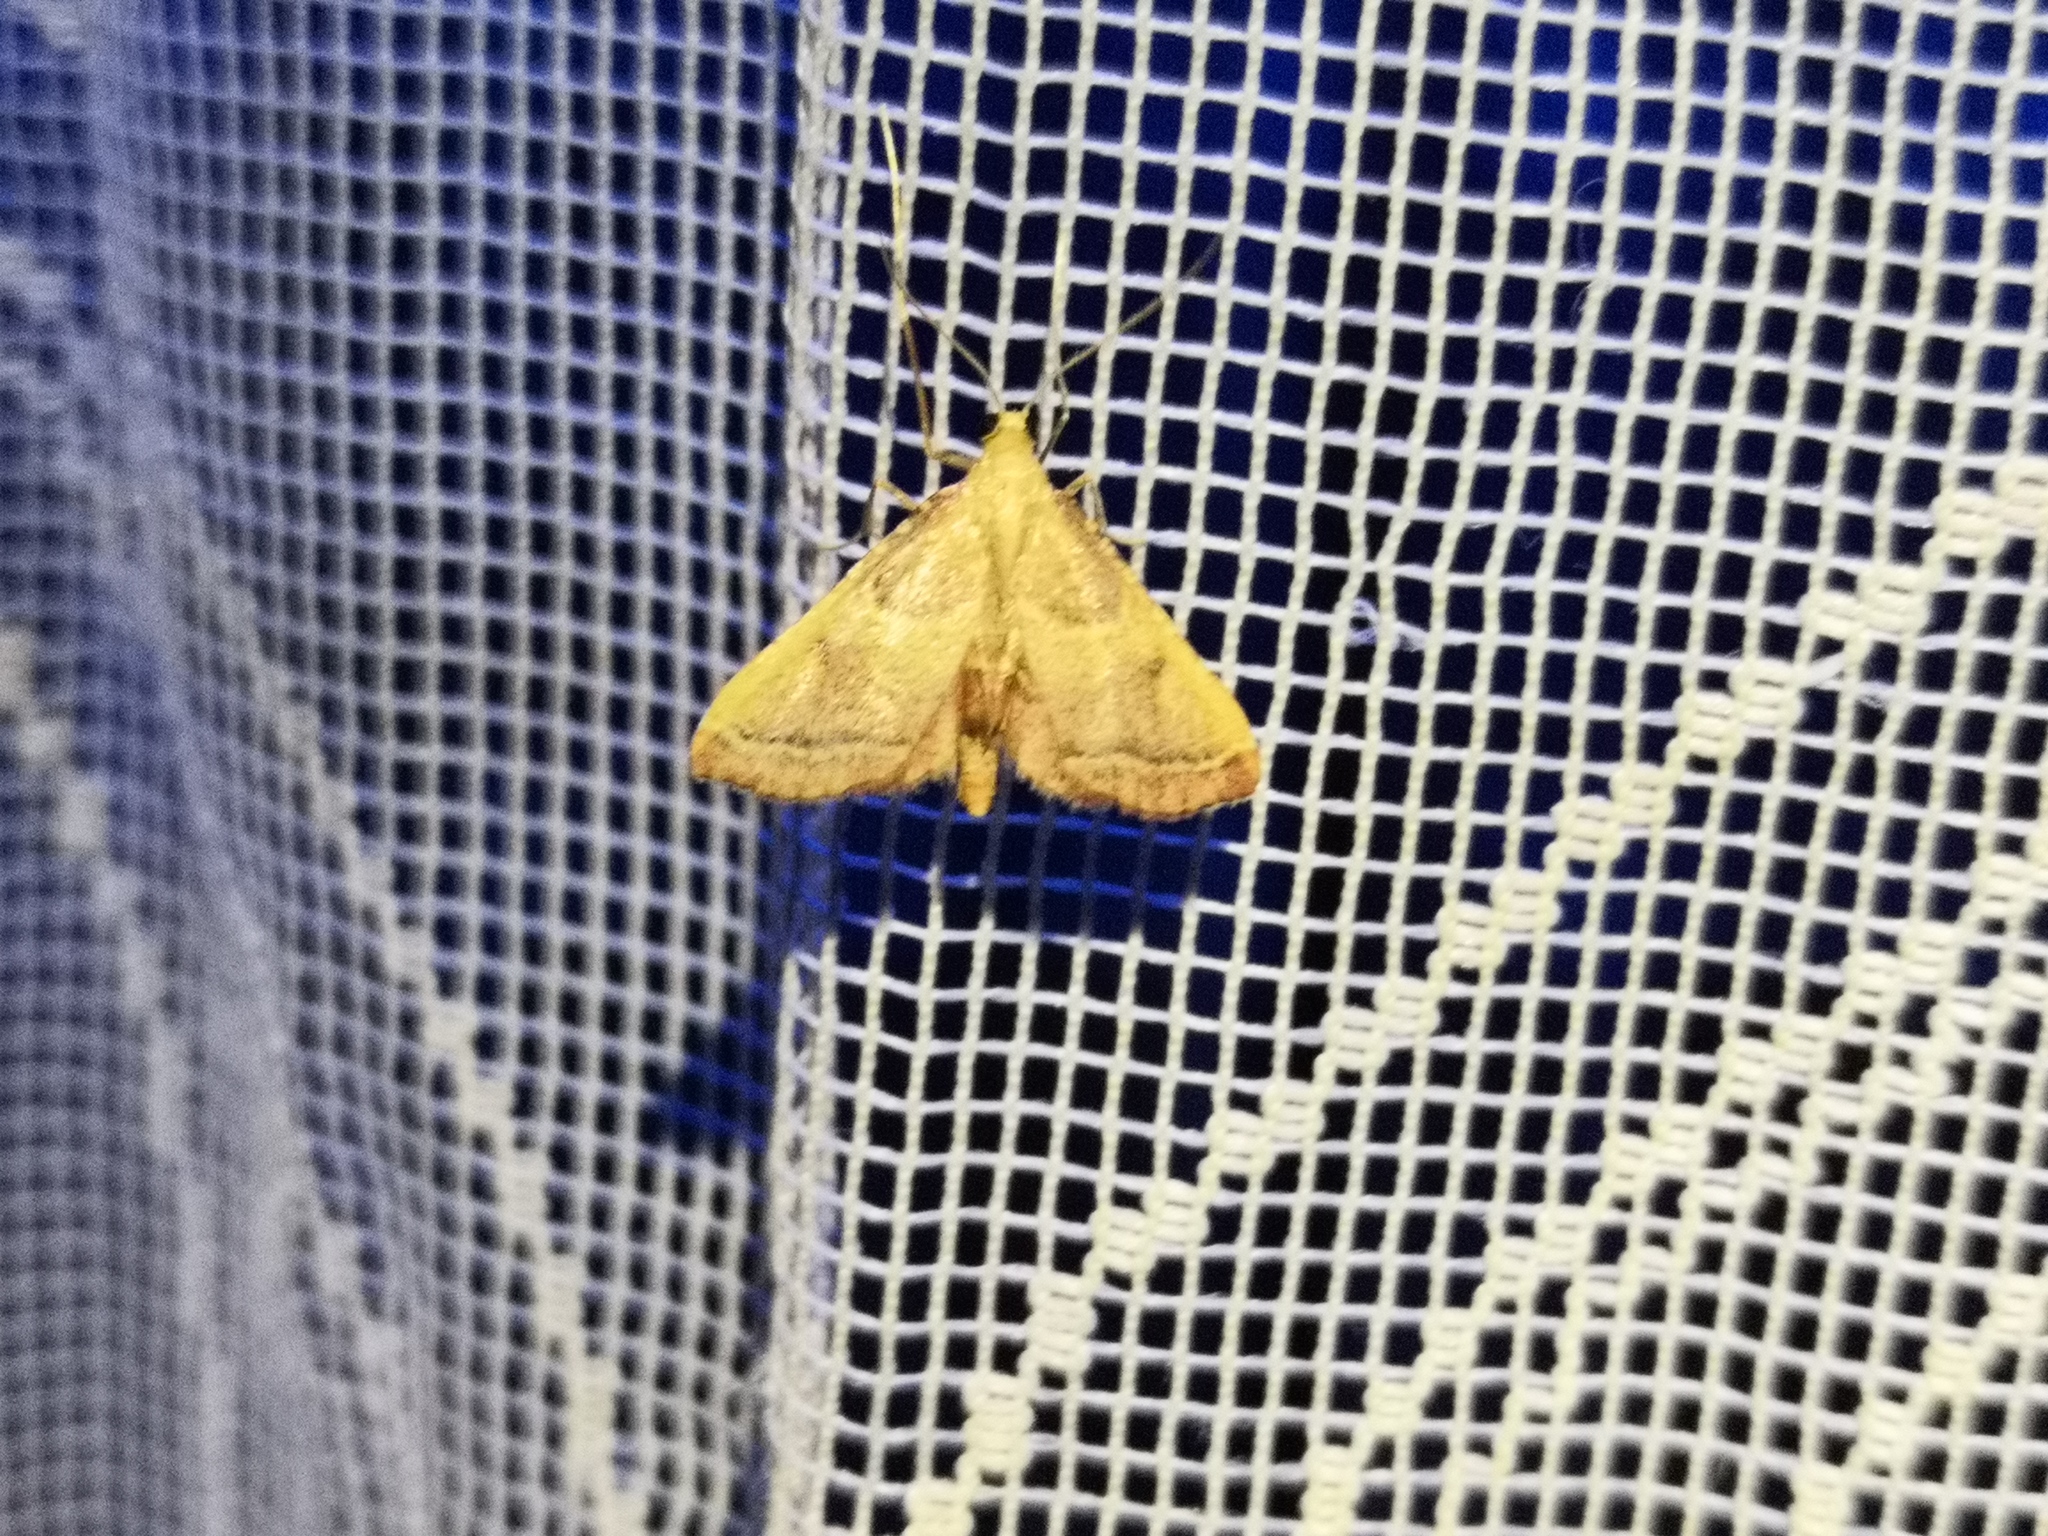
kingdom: Animalia
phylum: Arthropoda
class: Insecta
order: Lepidoptera
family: Pyralidae
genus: Endotricha
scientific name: Endotricha flammealis
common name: Rosy tabby
